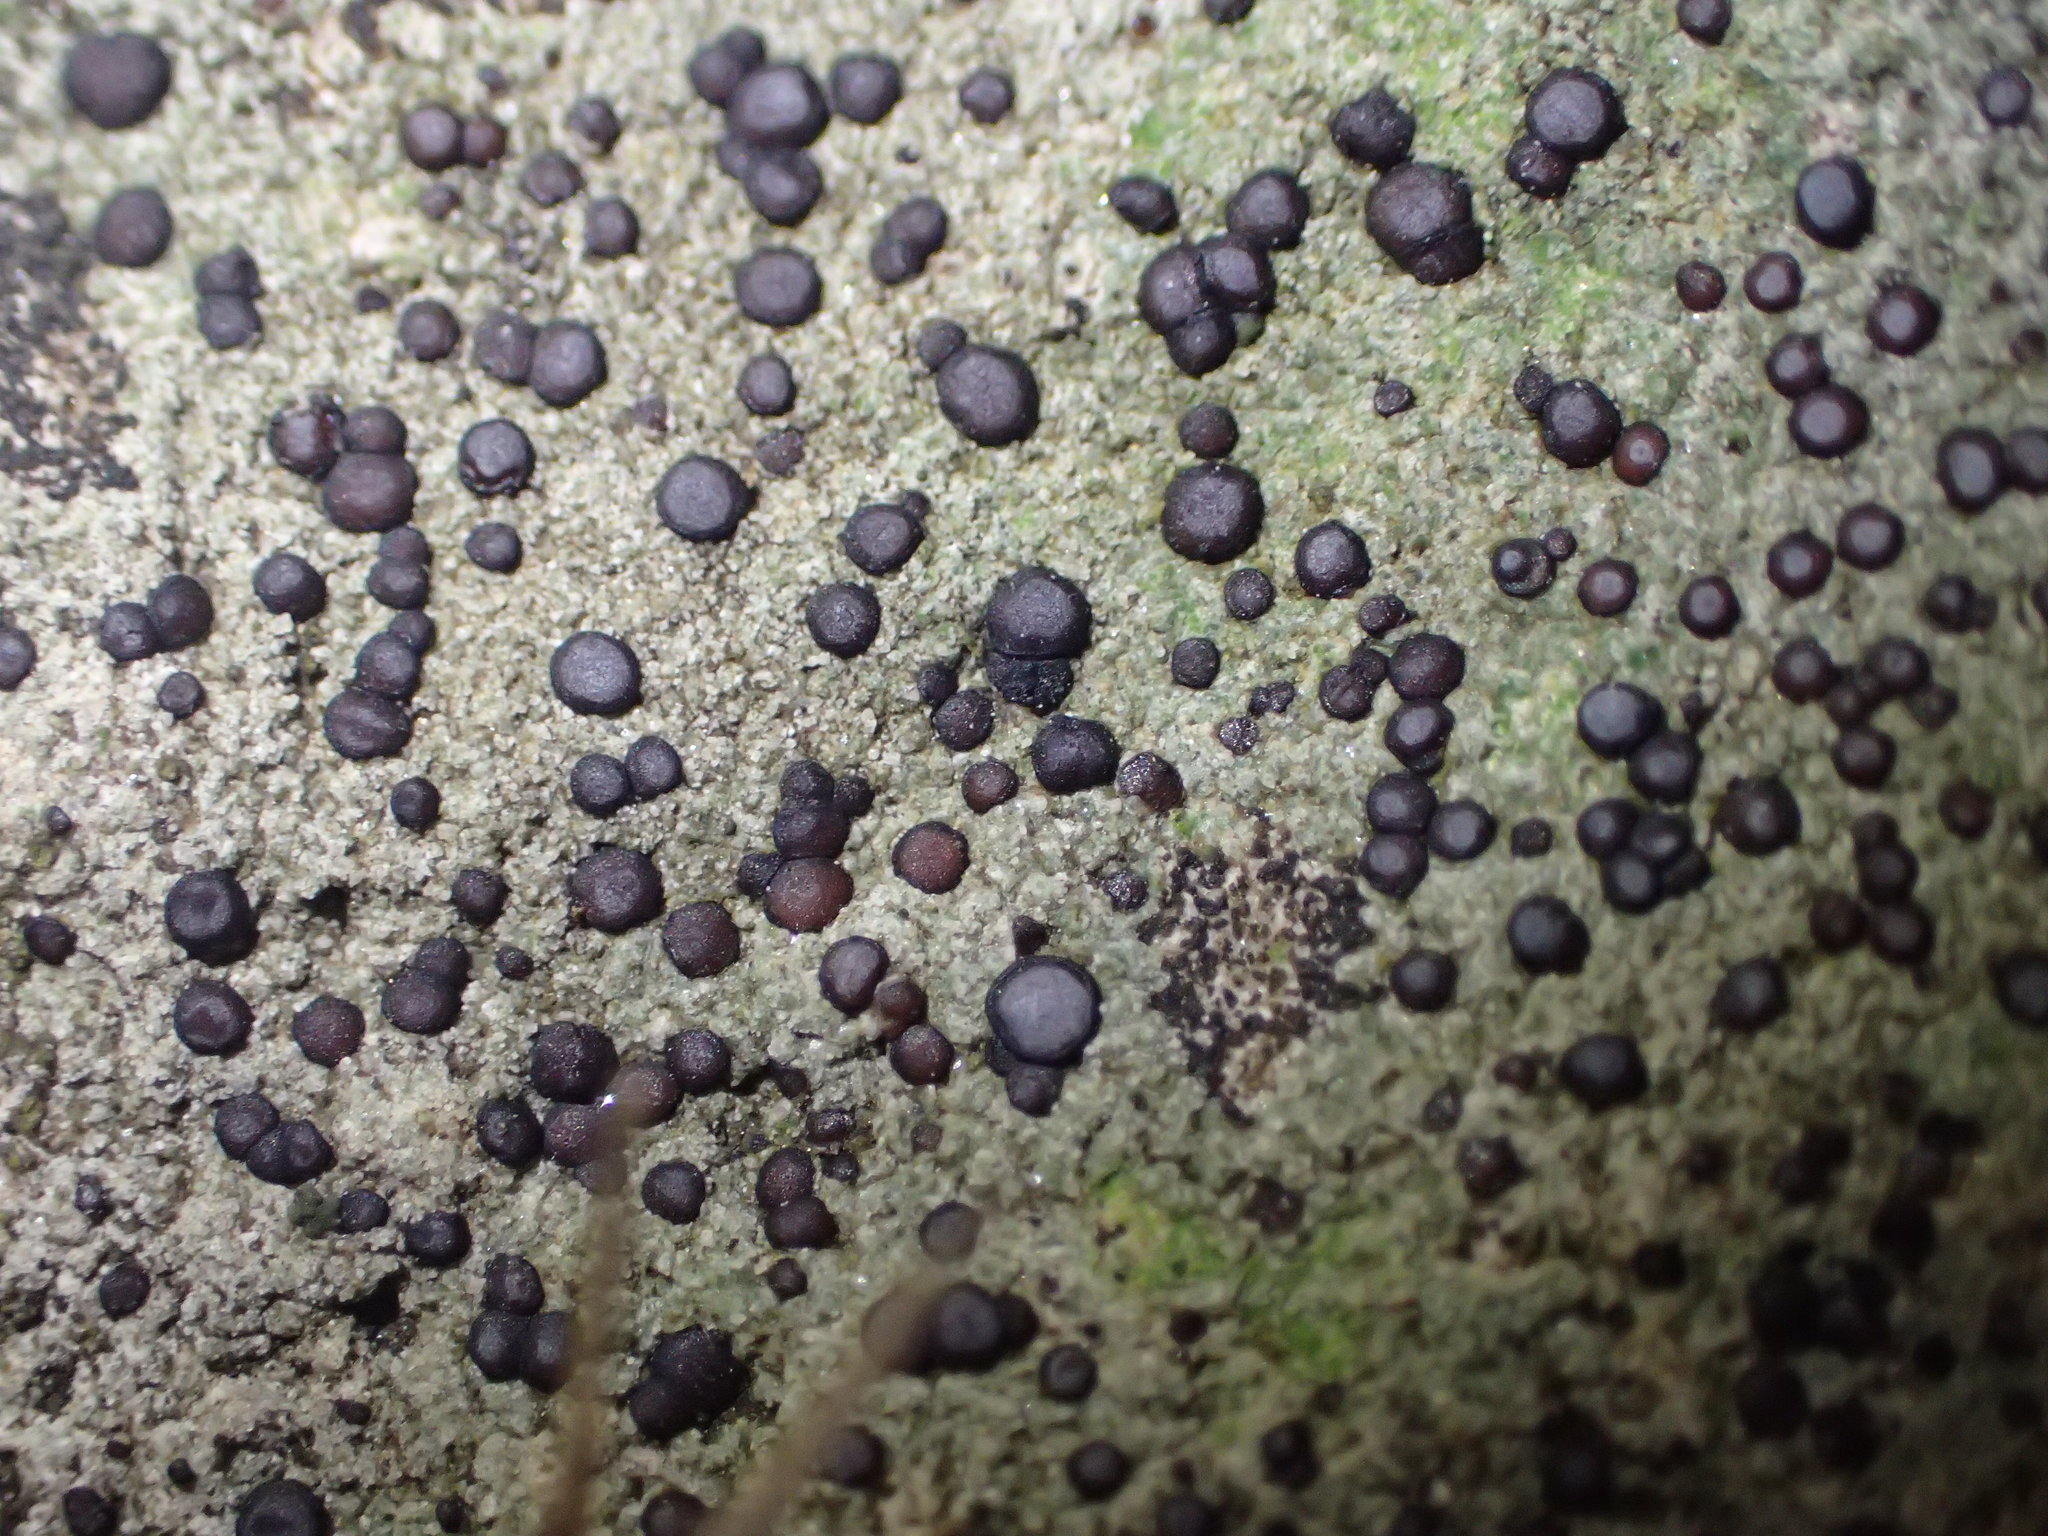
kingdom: Fungi
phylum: Ascomycota
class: Lecanoromycetes
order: Acarosporales
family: Acarosporaceae
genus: Sarcogyne
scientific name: Sarcogyne regularis
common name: Frosted grain-spored lichen
